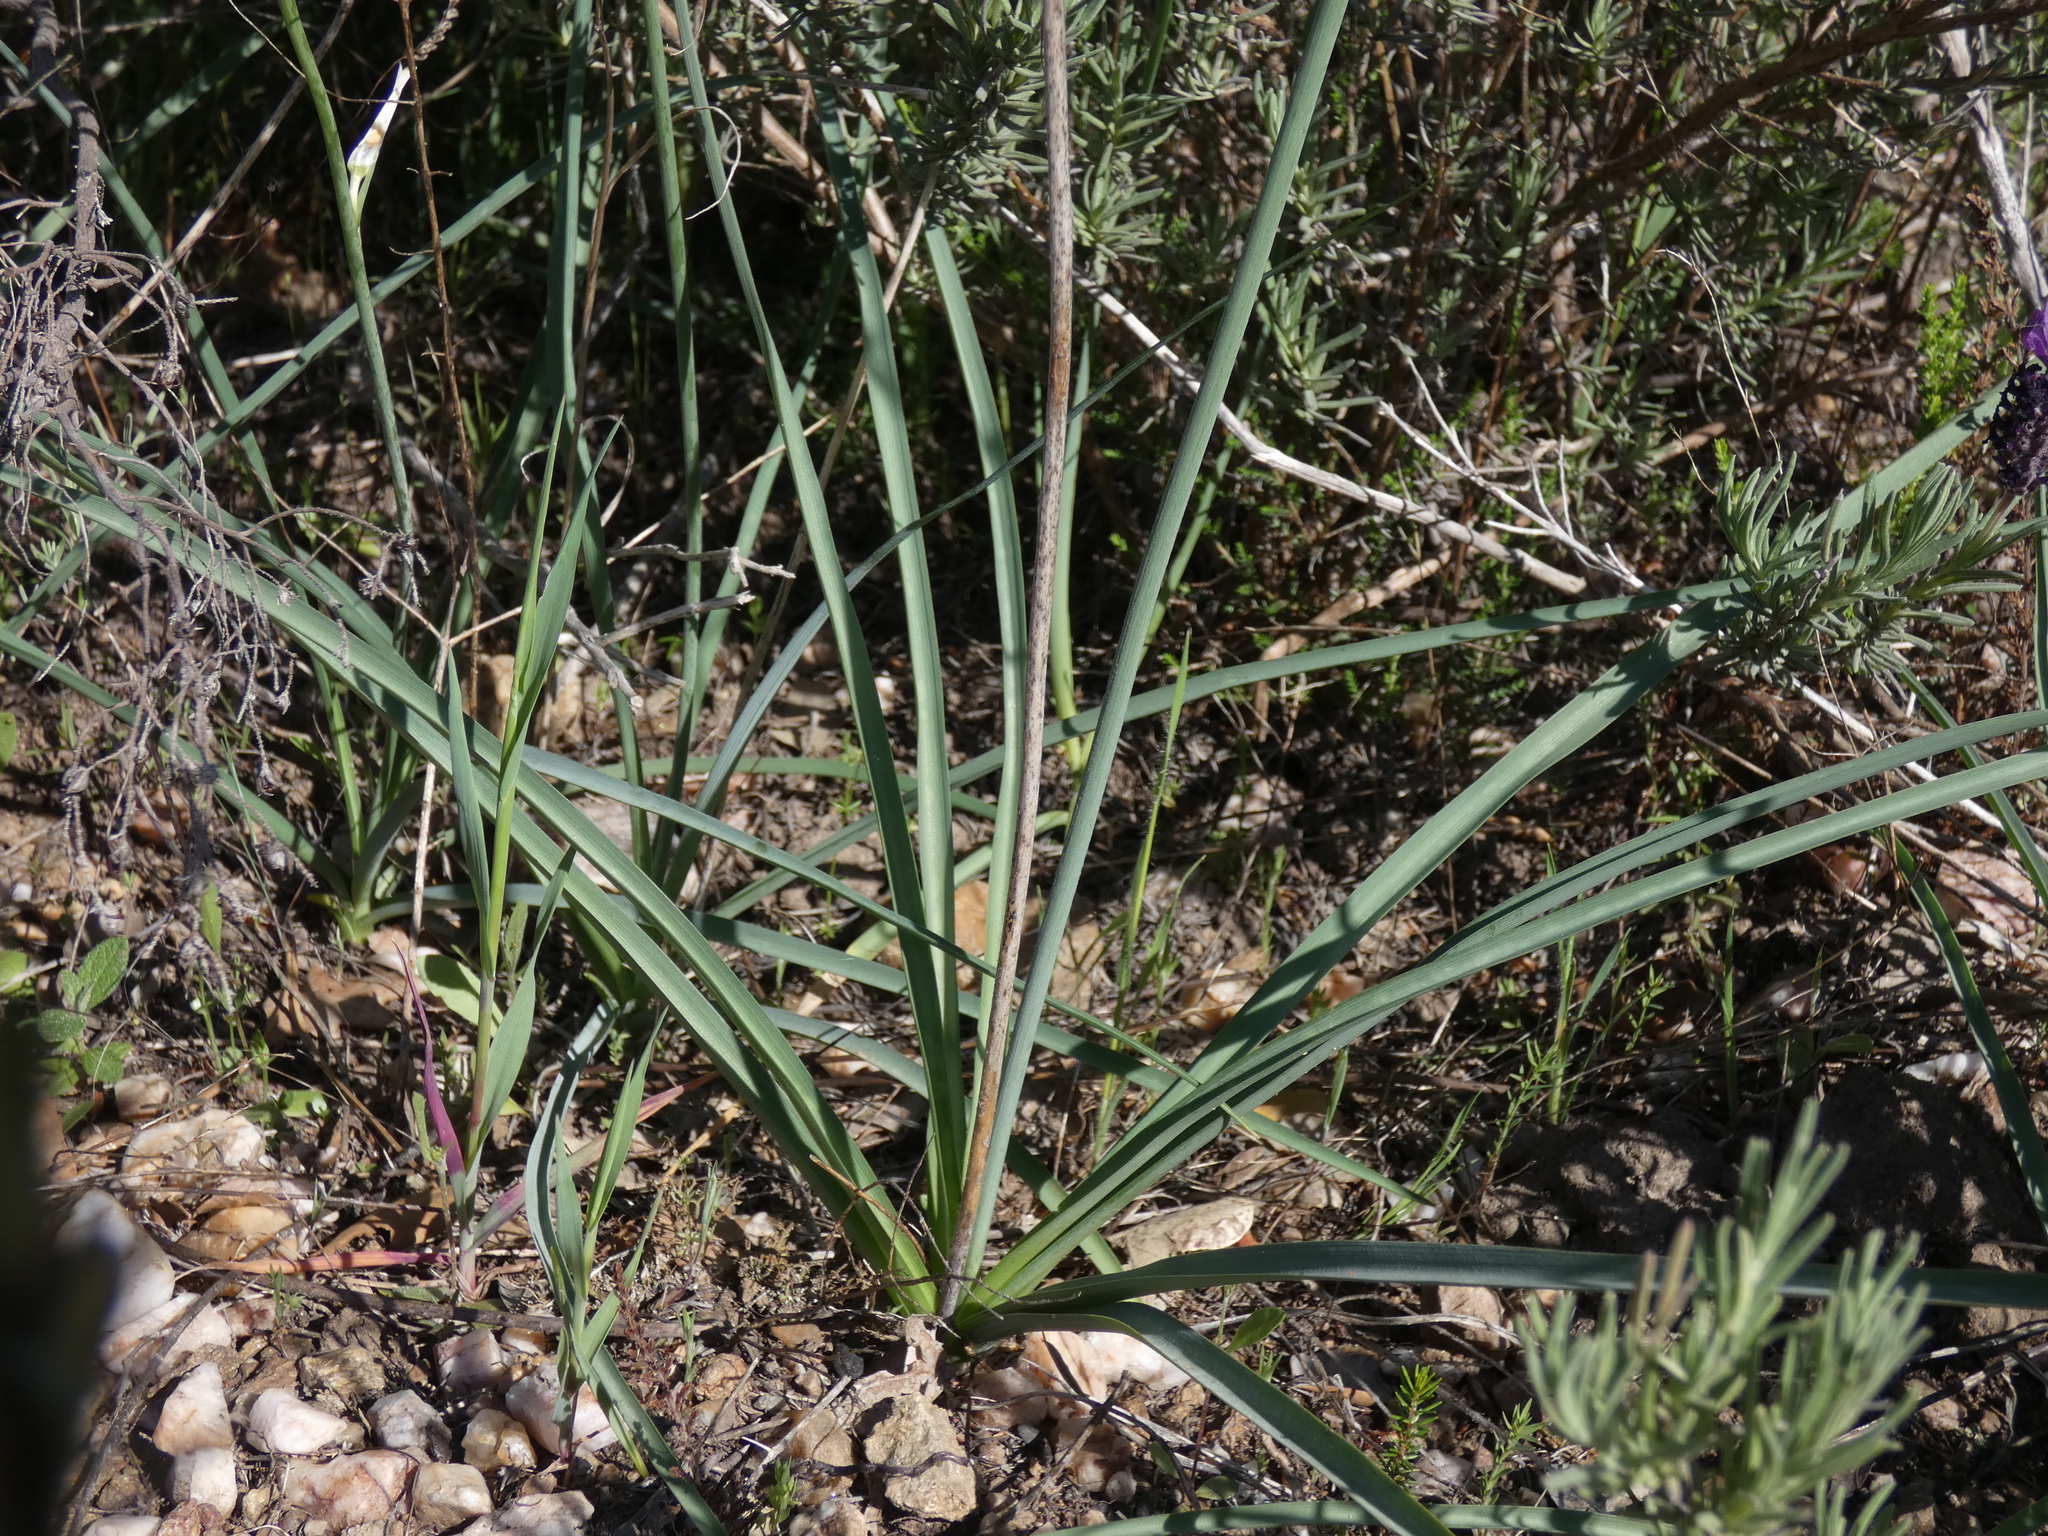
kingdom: Plantae
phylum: Tracheophyta
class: Liliopsida
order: Asparagales
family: Asparagaceae
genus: Anthericum
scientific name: Anthericum liliago
